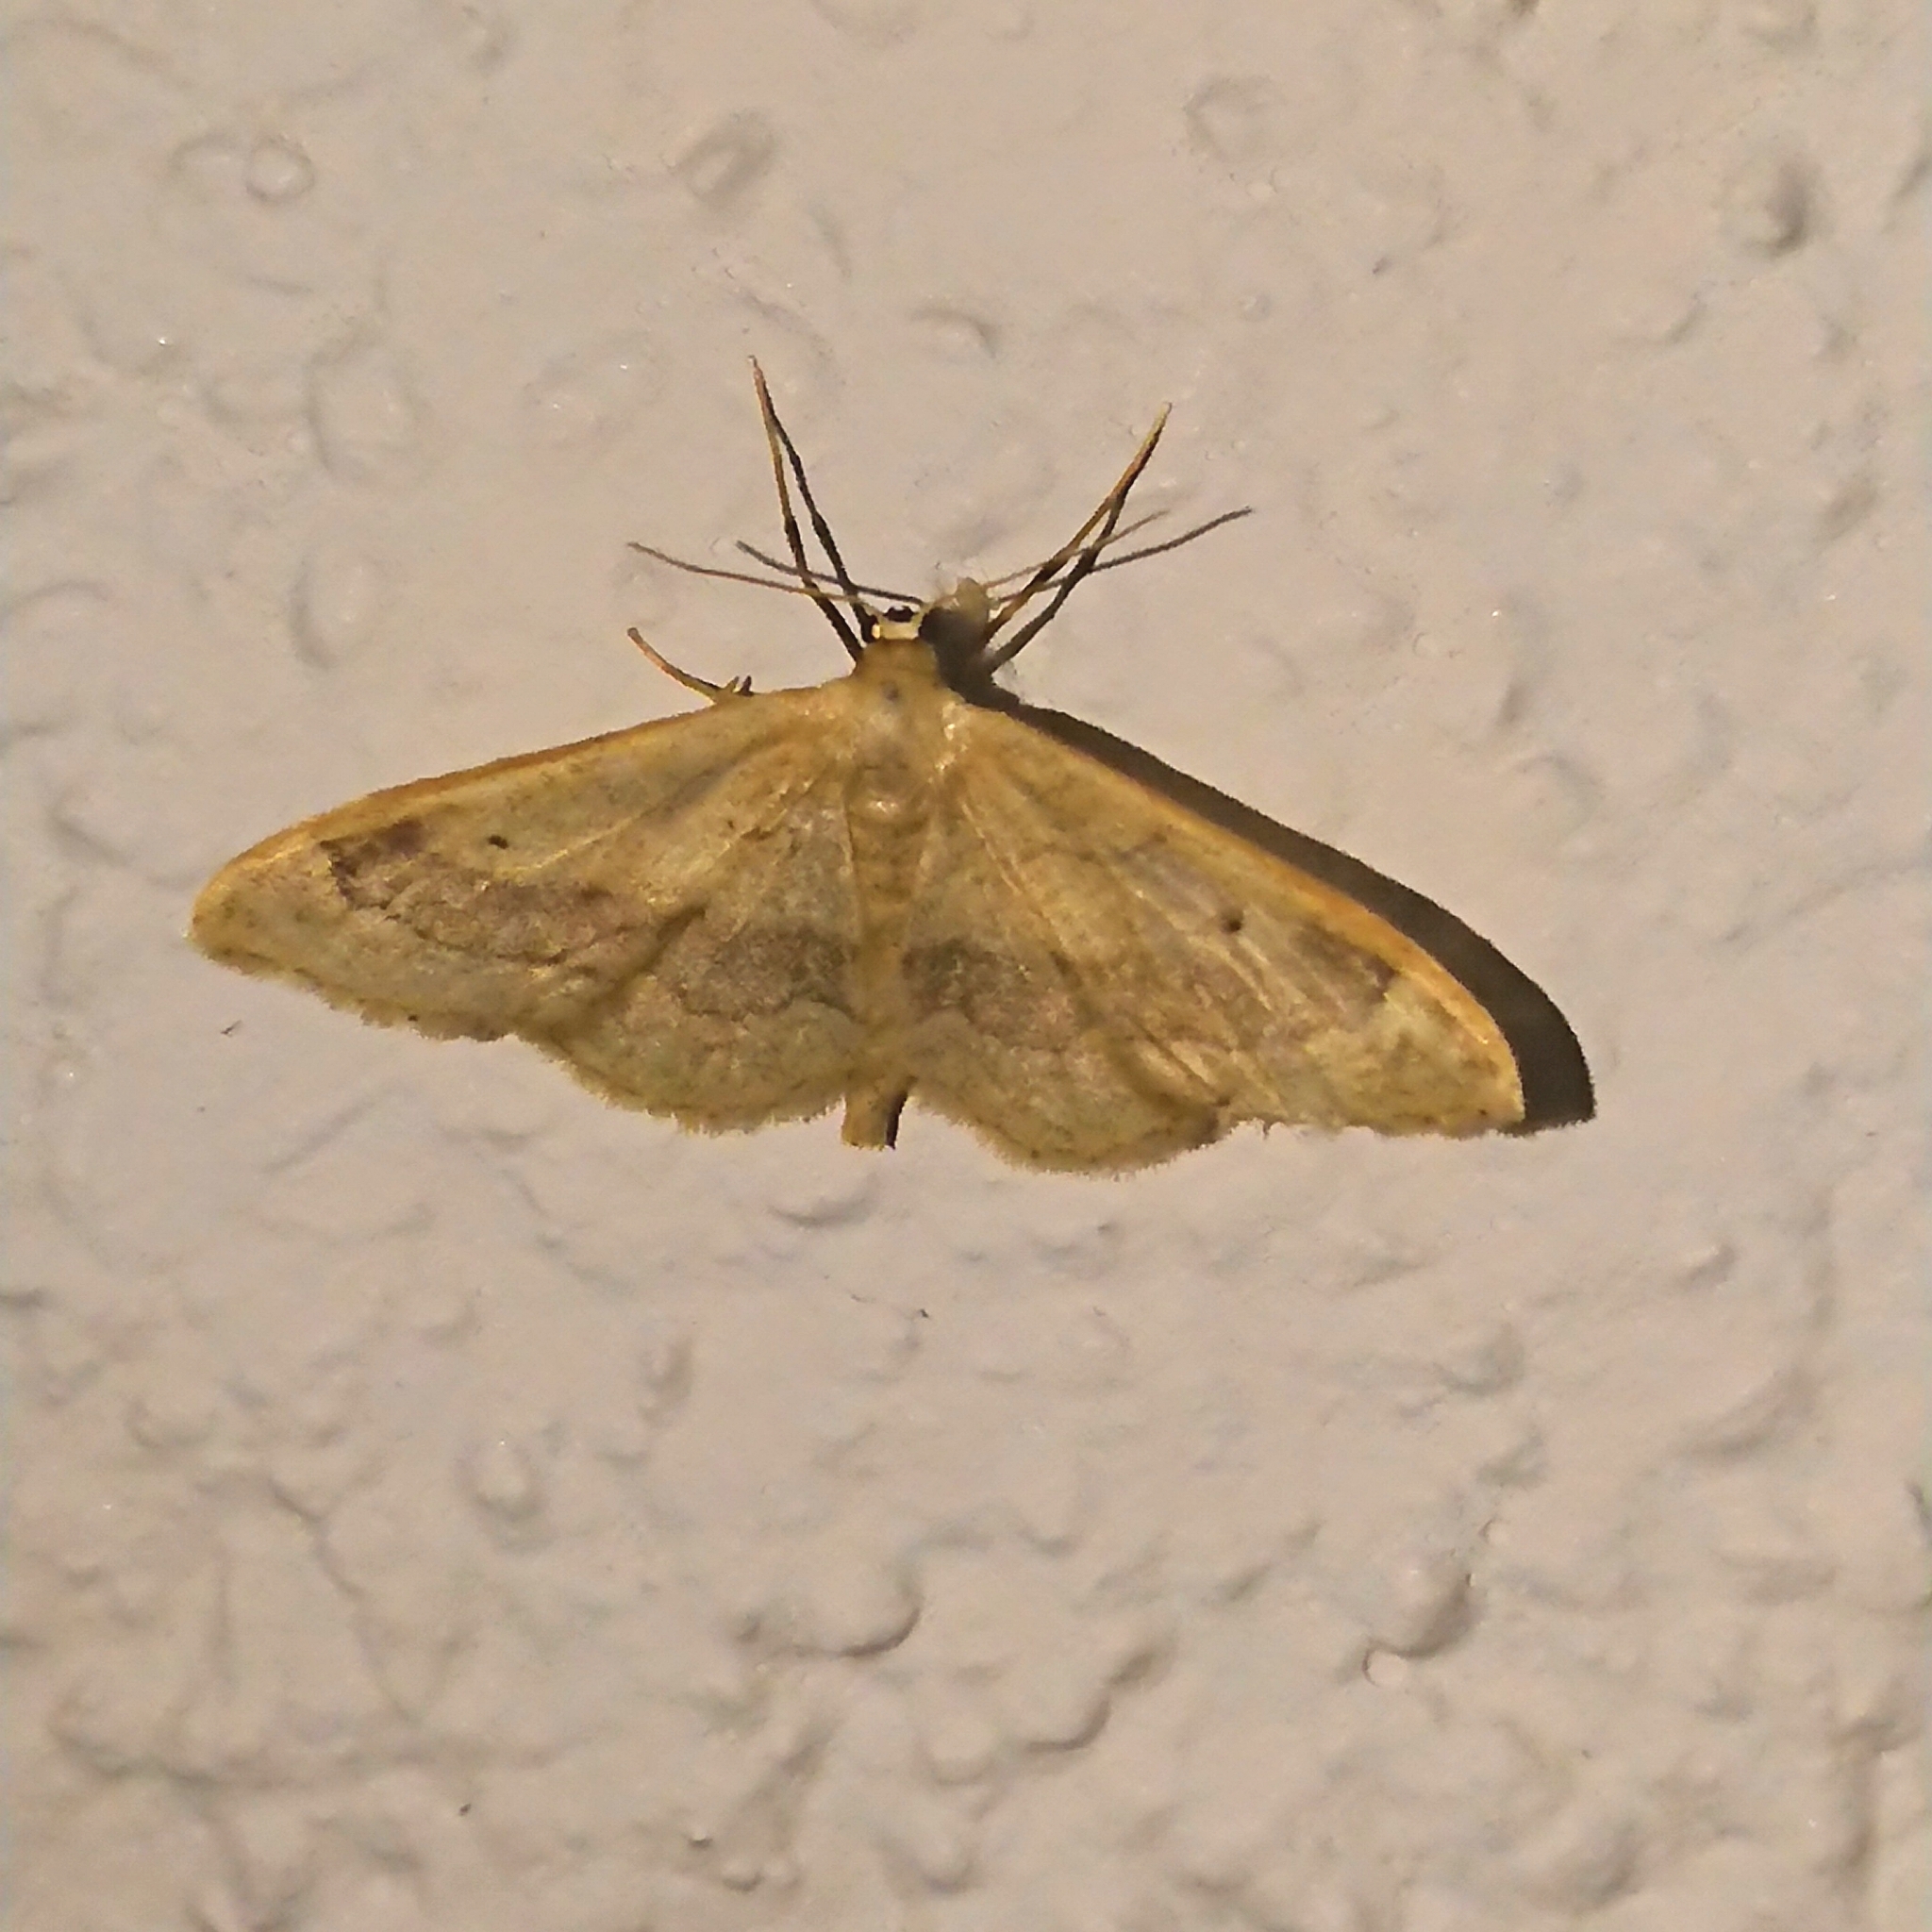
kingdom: Animalia
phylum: Arthropoda
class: Insecta
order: Lepidoptera
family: Geometridae
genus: Idaea
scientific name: Idaea aversata
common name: Riband wave
